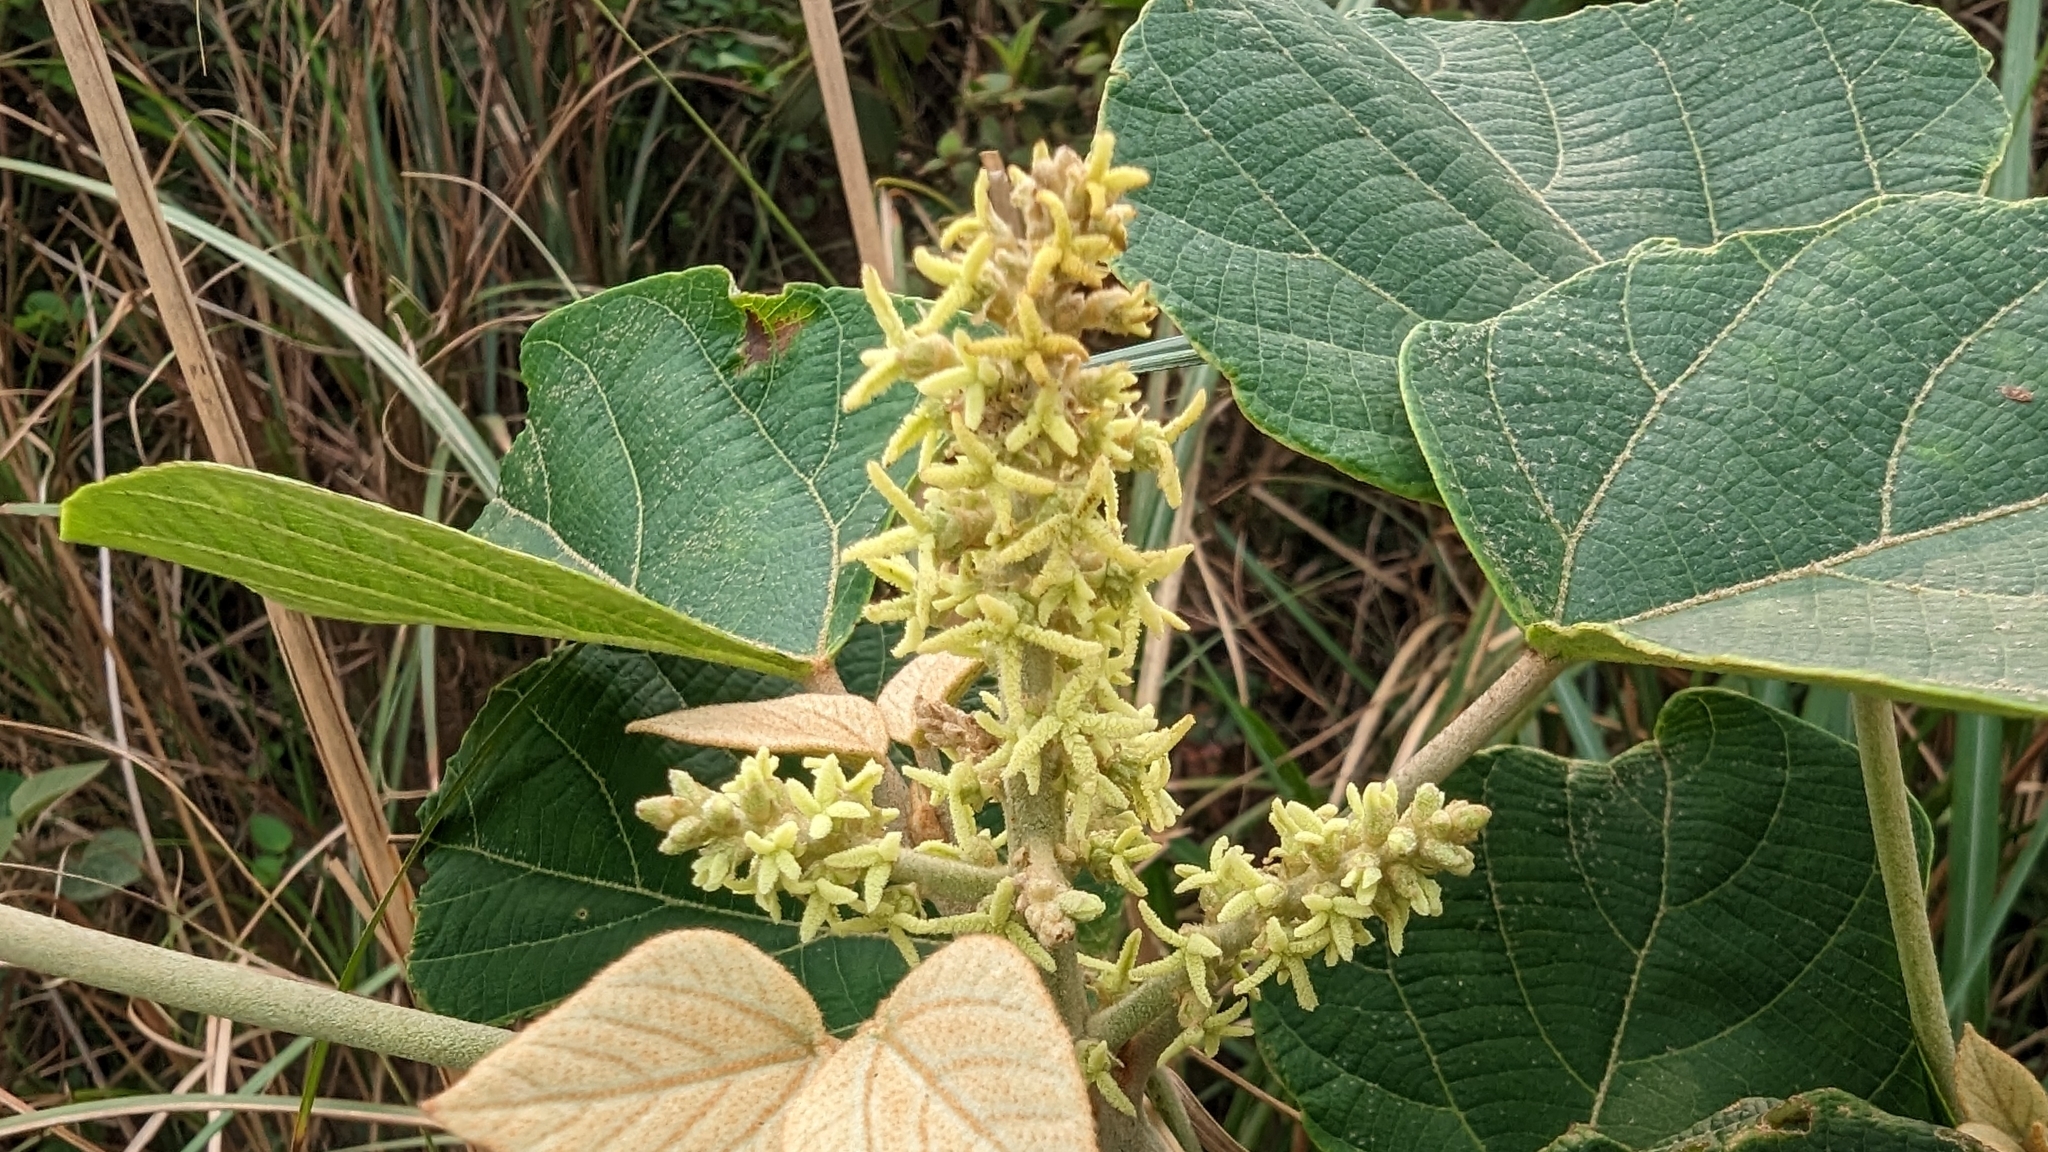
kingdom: Plantae
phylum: Tracheophyta
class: Magnoliopsida
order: Malpighiales
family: Euphorbiaceae
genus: Mallotus
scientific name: Mallotus japonicus
